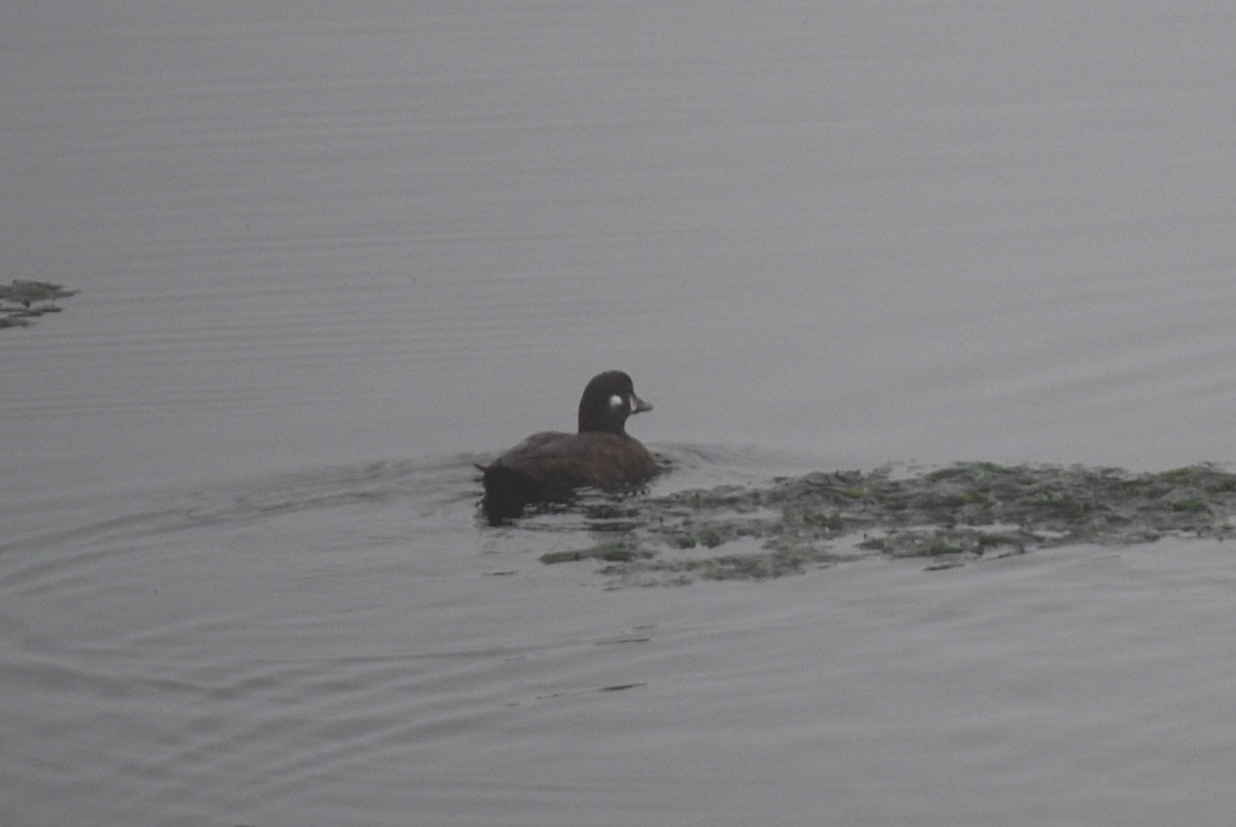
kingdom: Animalia
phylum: Chordata
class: Aves
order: Anseriformes
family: Anatidae
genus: Histrionicus
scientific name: Histrionicus histrionicus
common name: Harlequin duck
